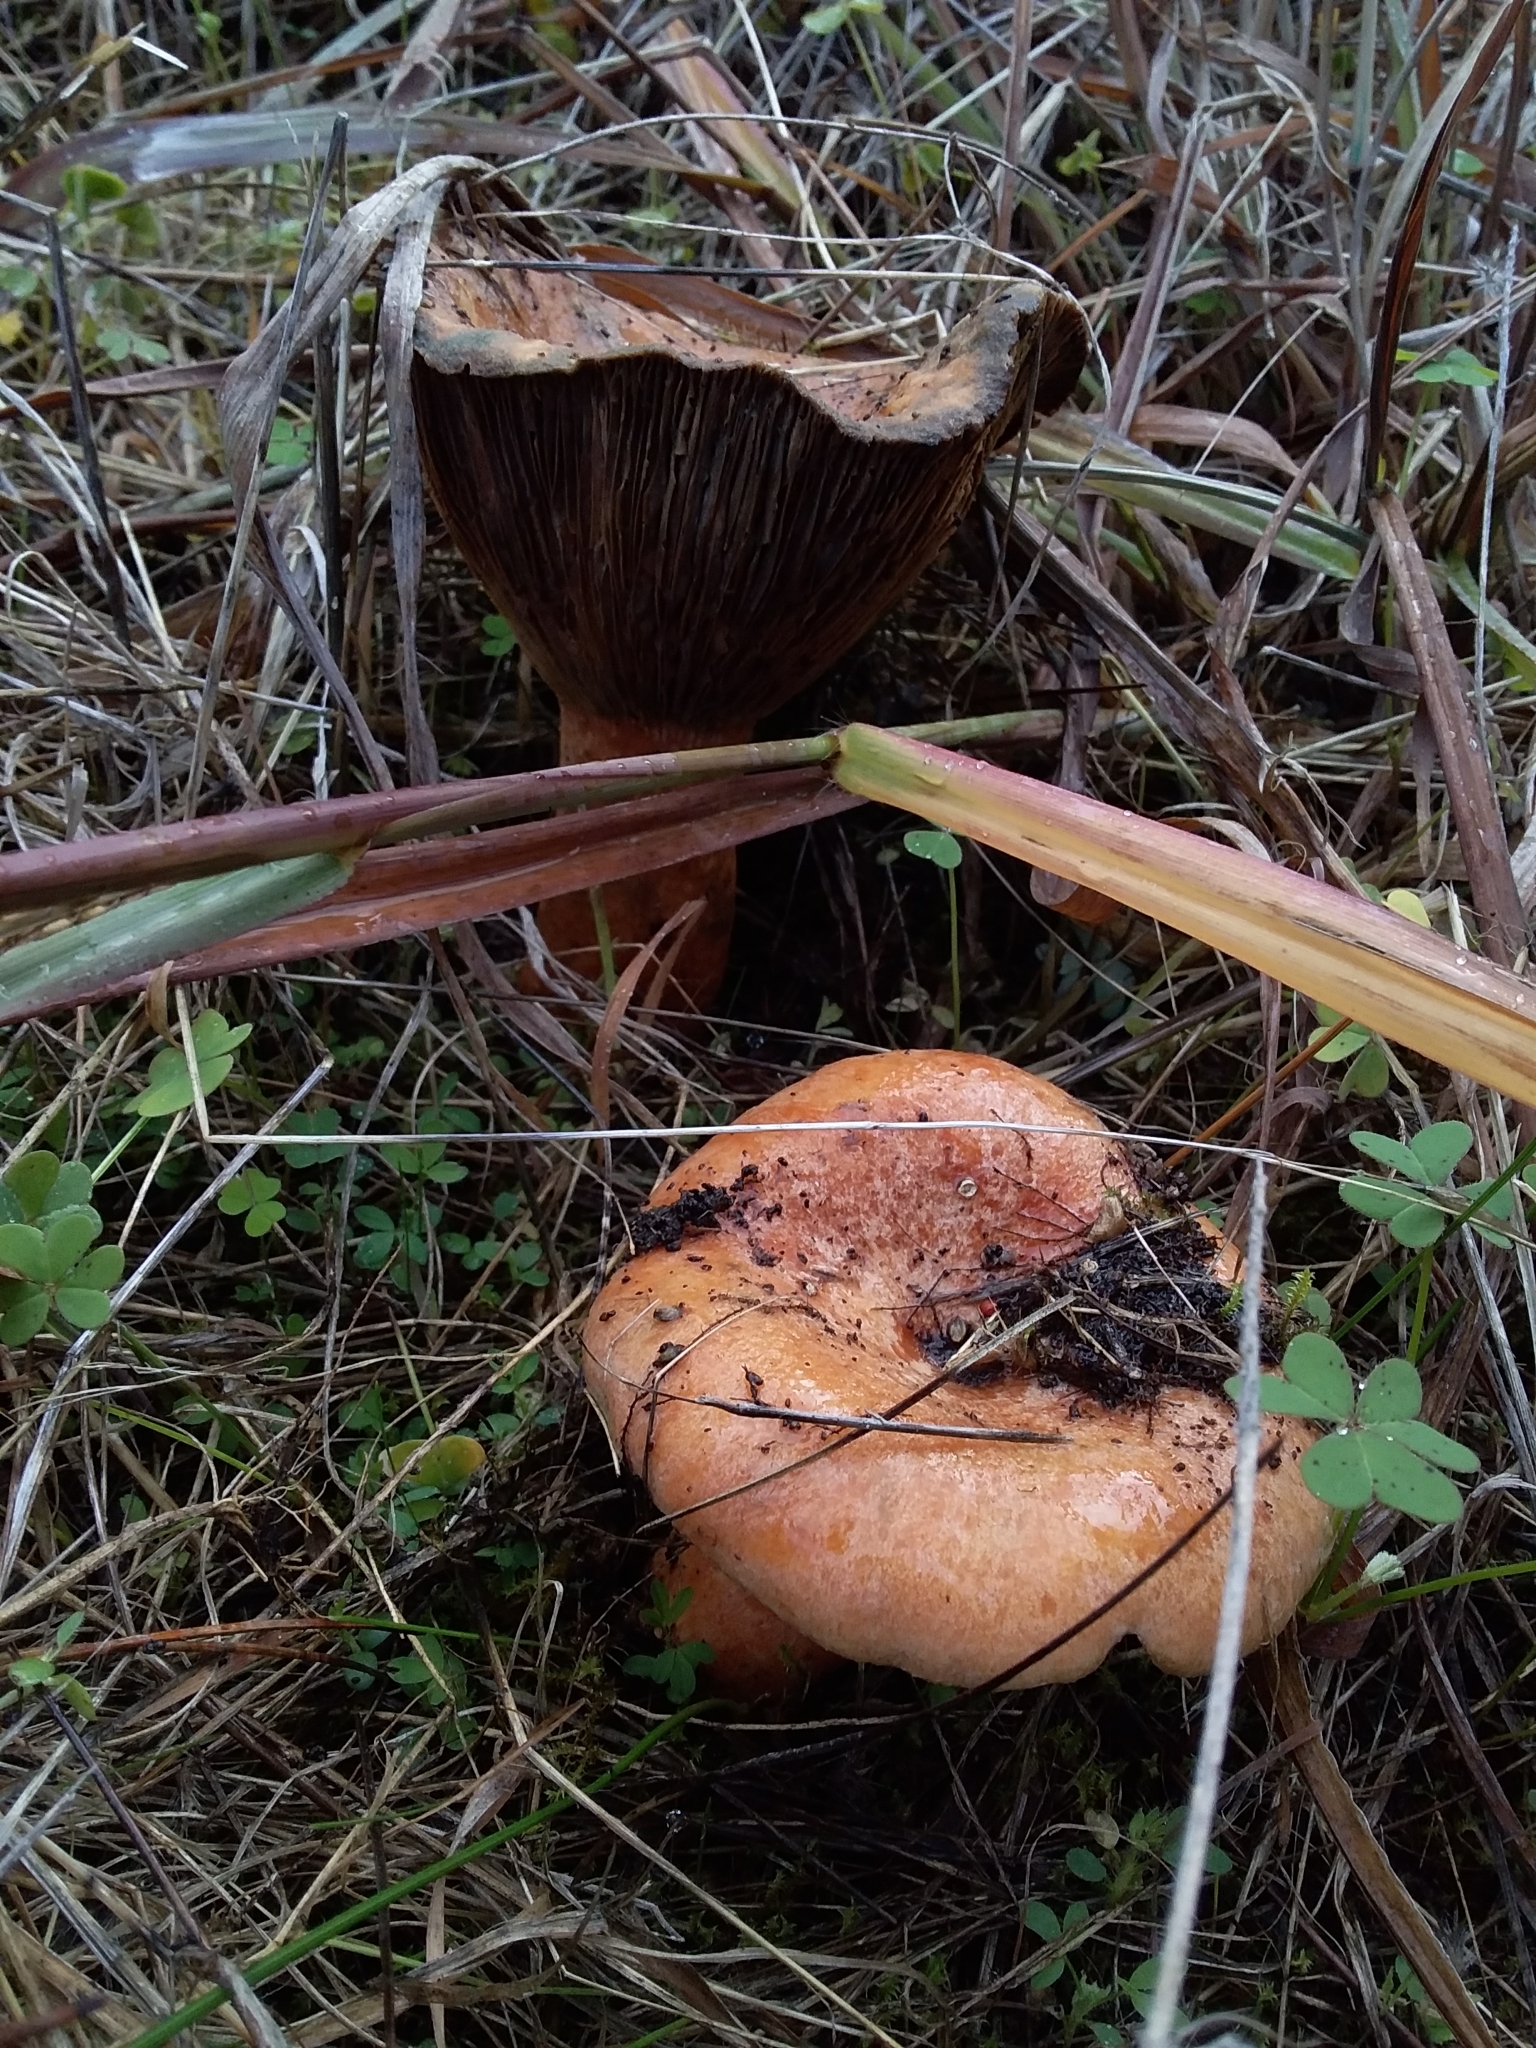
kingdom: Fungi
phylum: Basidiomycota
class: Agaricomycetes
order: Russulales
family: Russulaceae
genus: Lactarius
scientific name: Lactarius deliciosus
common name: Saffron milk-cap
